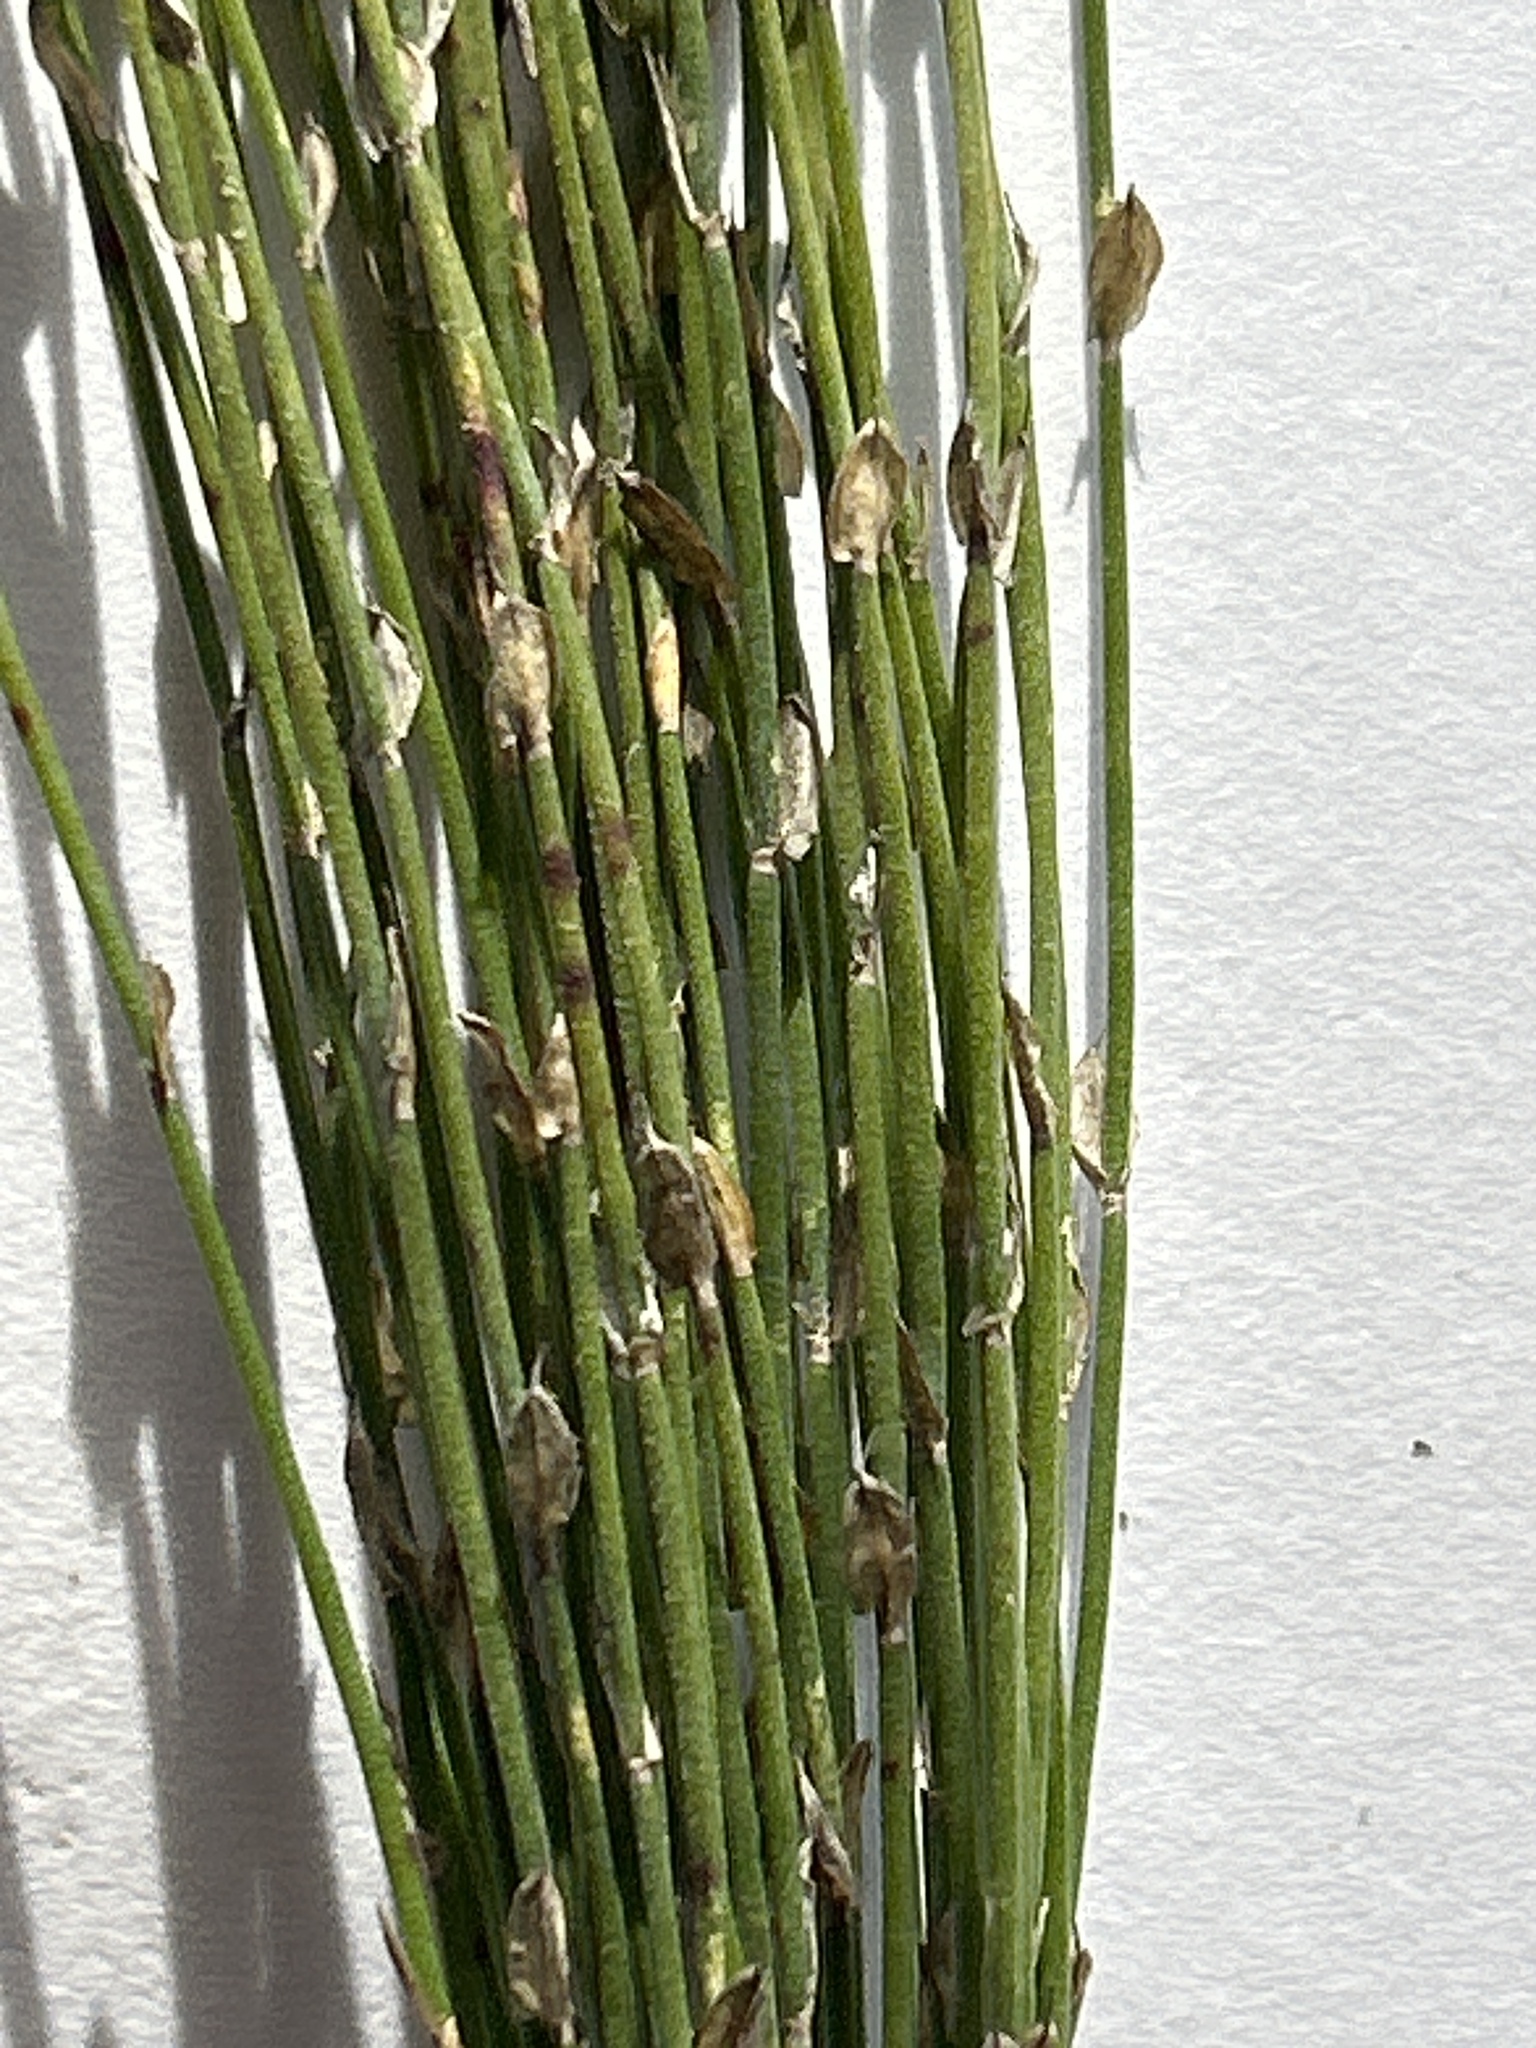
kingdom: Plantae
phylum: Tracheophyta
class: Liliopsida
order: Poales
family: Restionaceae
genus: Elegia
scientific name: Elegia microcarpa
